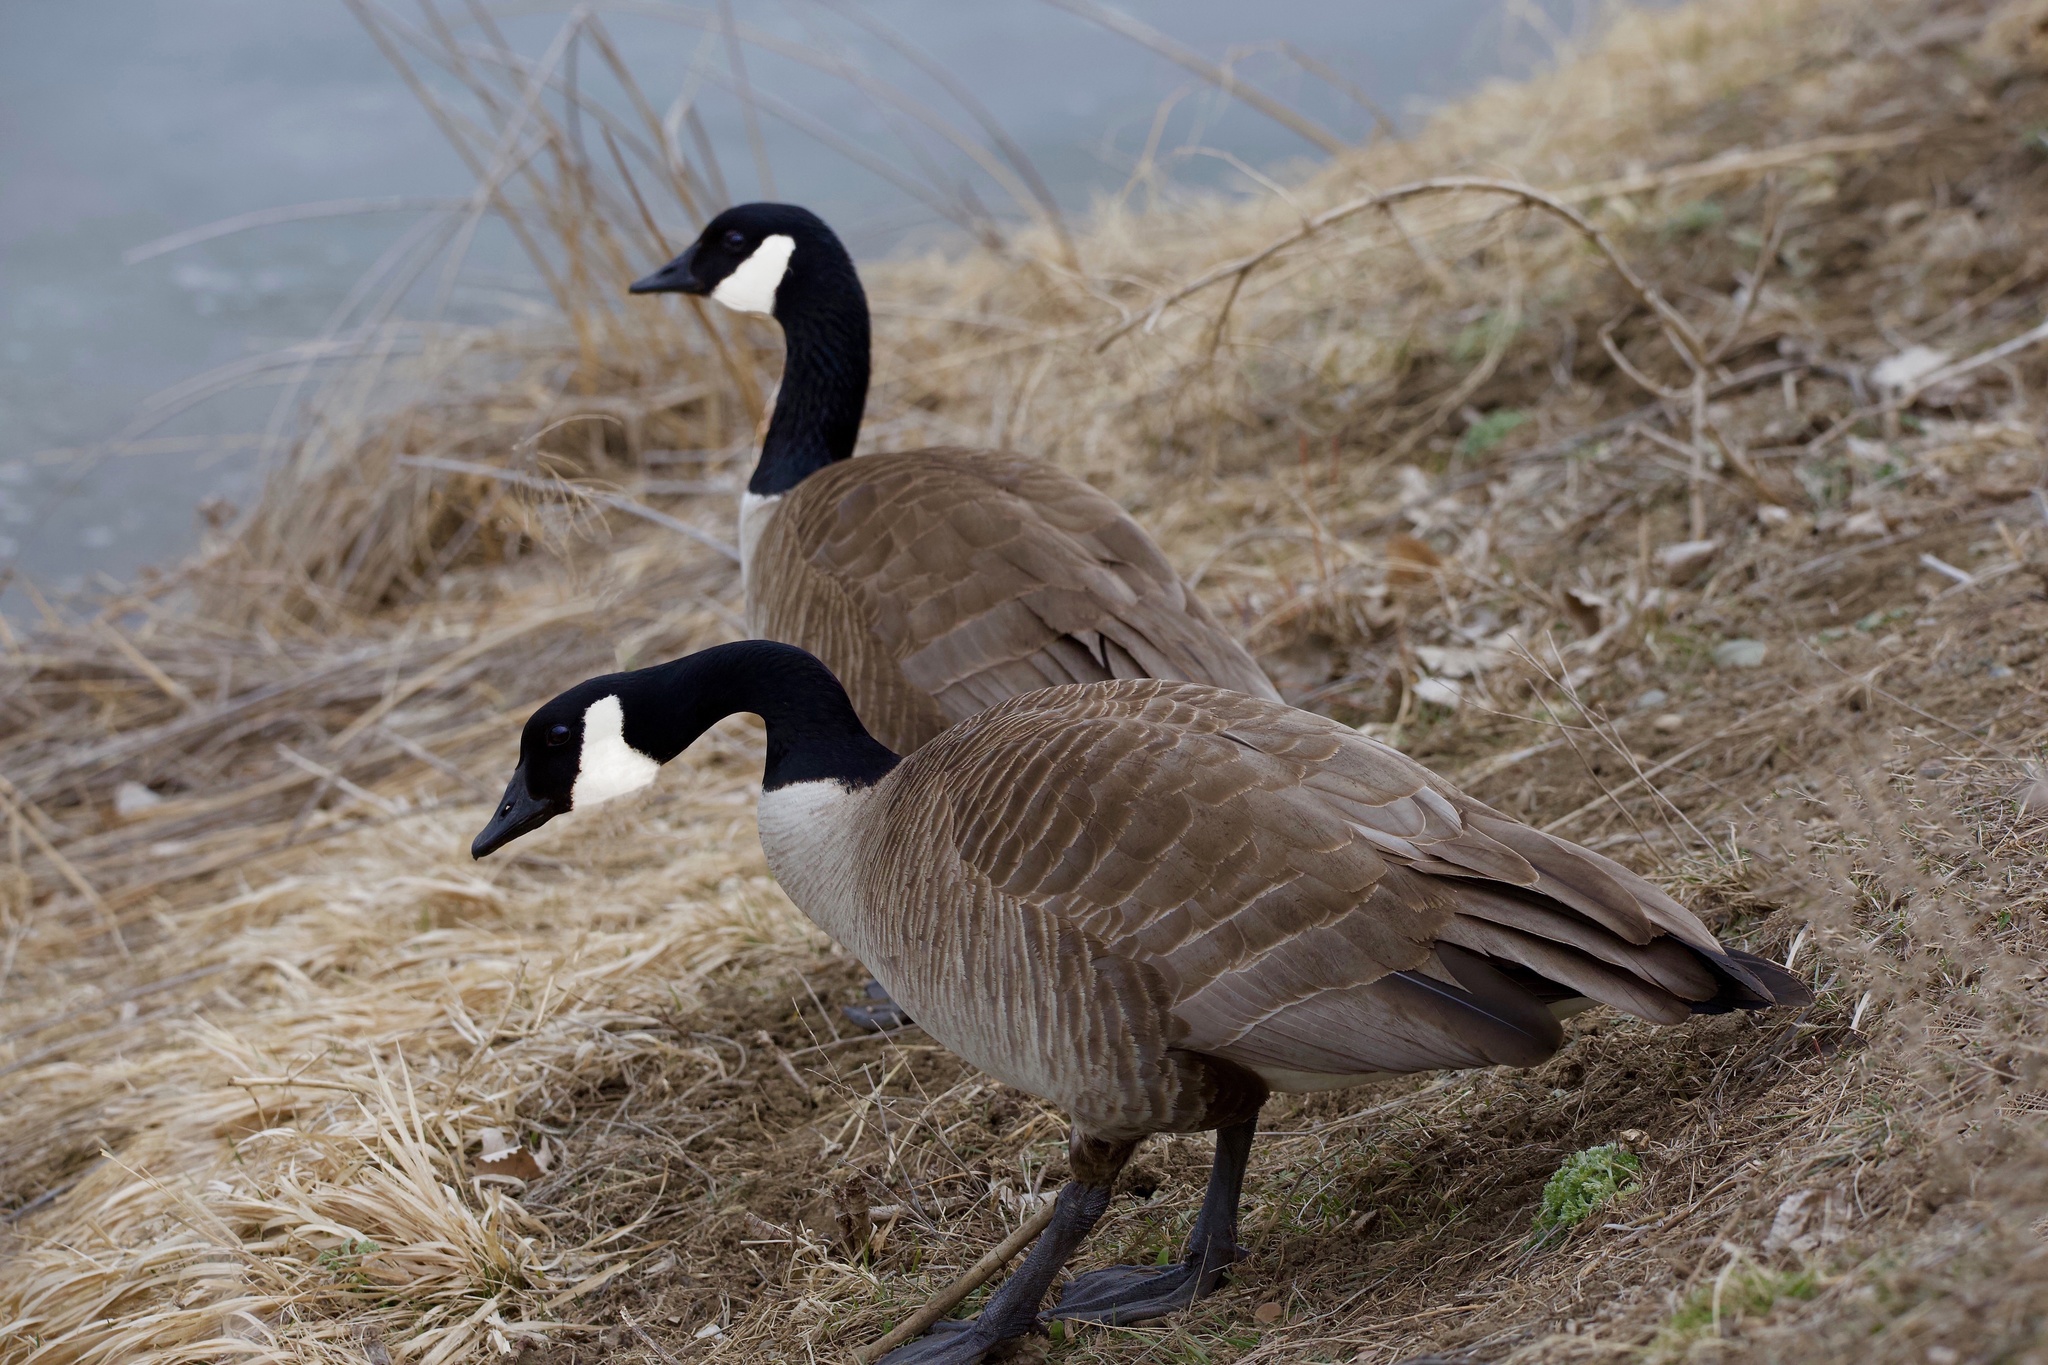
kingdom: Animalia
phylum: Chordata
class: Aves
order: Anseriformes
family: Anatidae
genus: Branta
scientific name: Branta canadensis
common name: Canada goose
